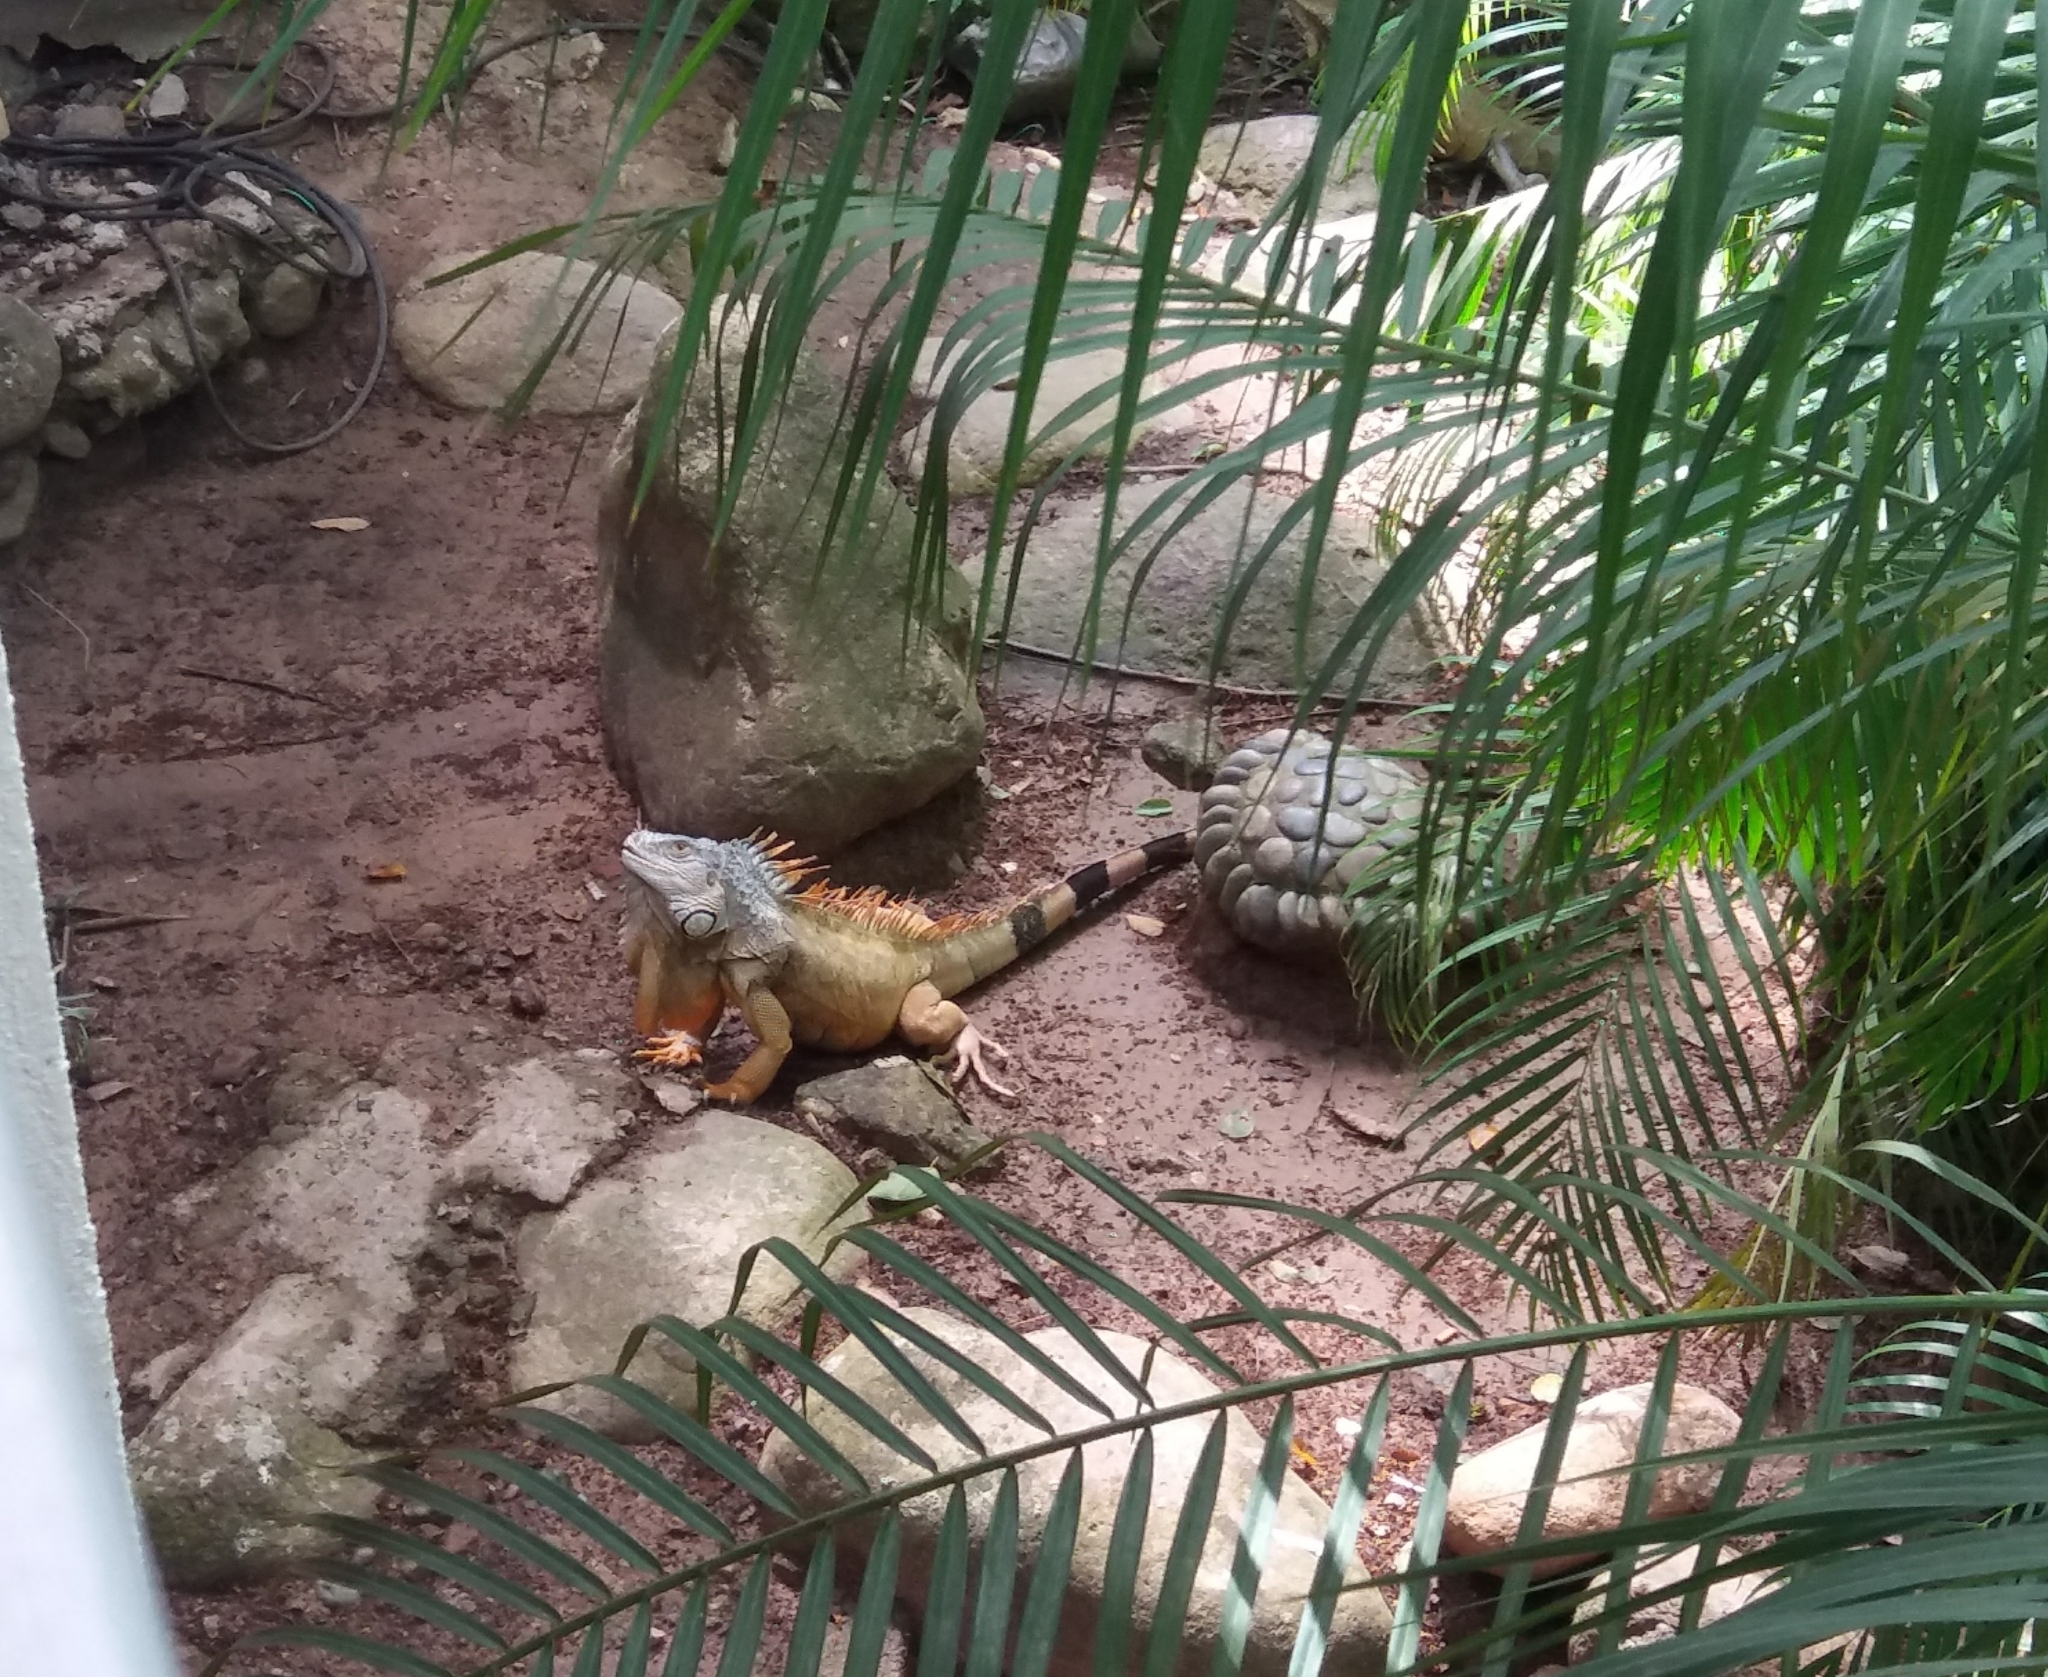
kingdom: Animalia
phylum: Chordata
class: Squamata
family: Iguanidae
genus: Iguana
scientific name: Iguana iguana
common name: Green iguana
